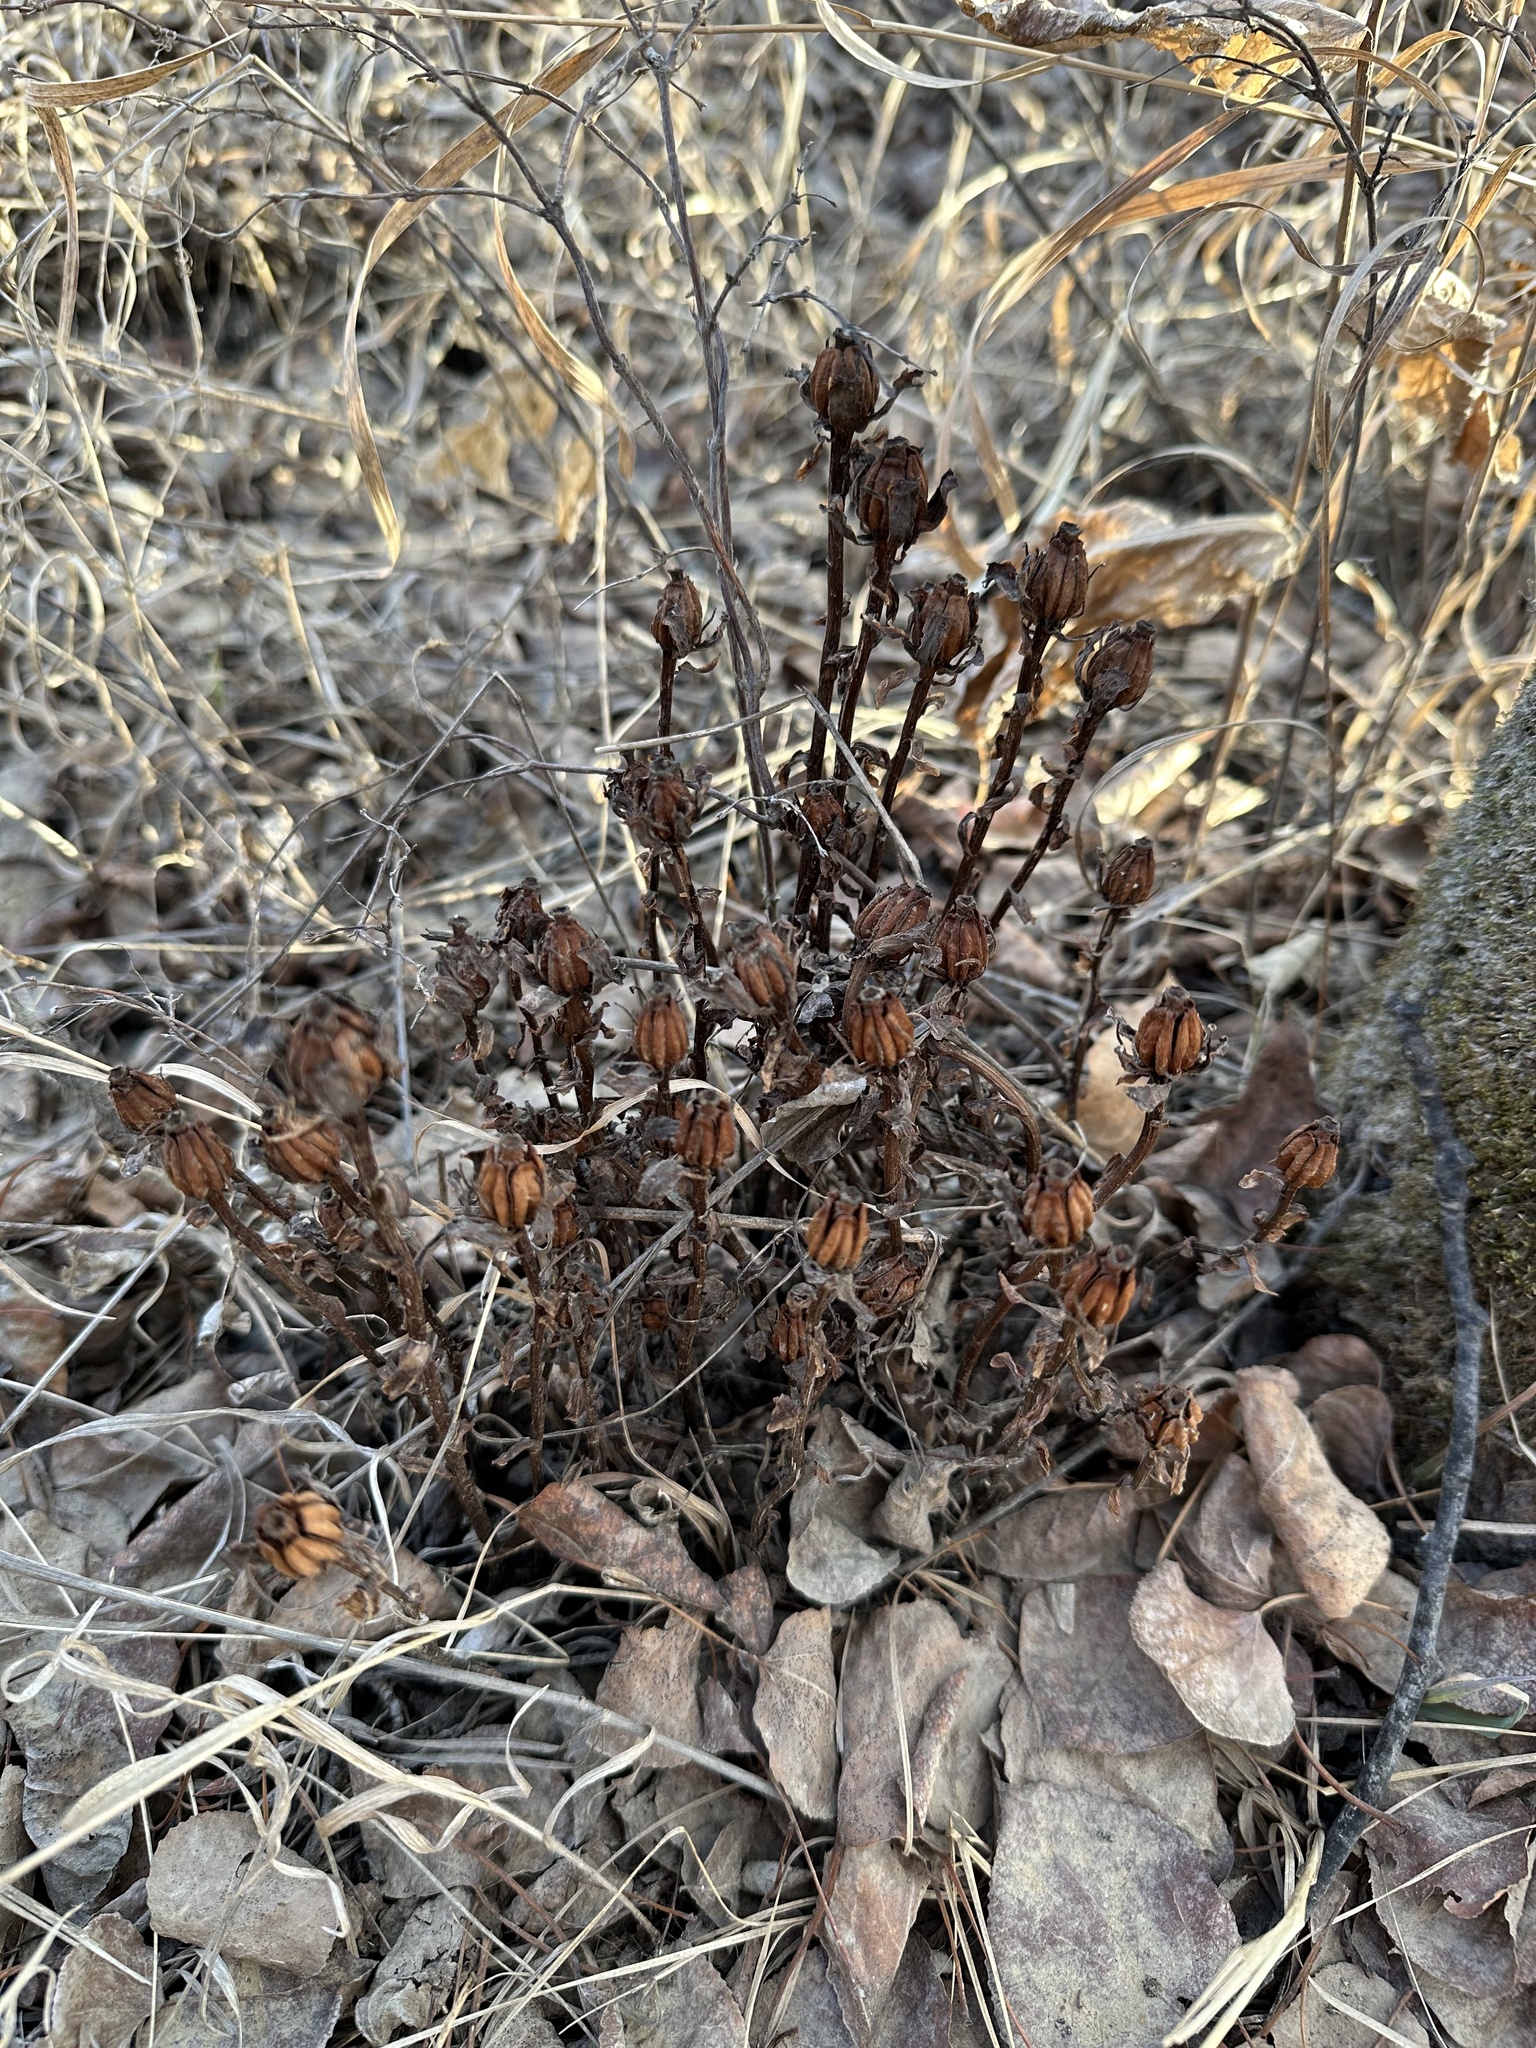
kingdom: Plantae
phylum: Tracheophyta
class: Magnoliopsida
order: Ericales
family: Ericaceae
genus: Monotropa
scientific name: Monotropa uniflora
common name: Convulsion root
